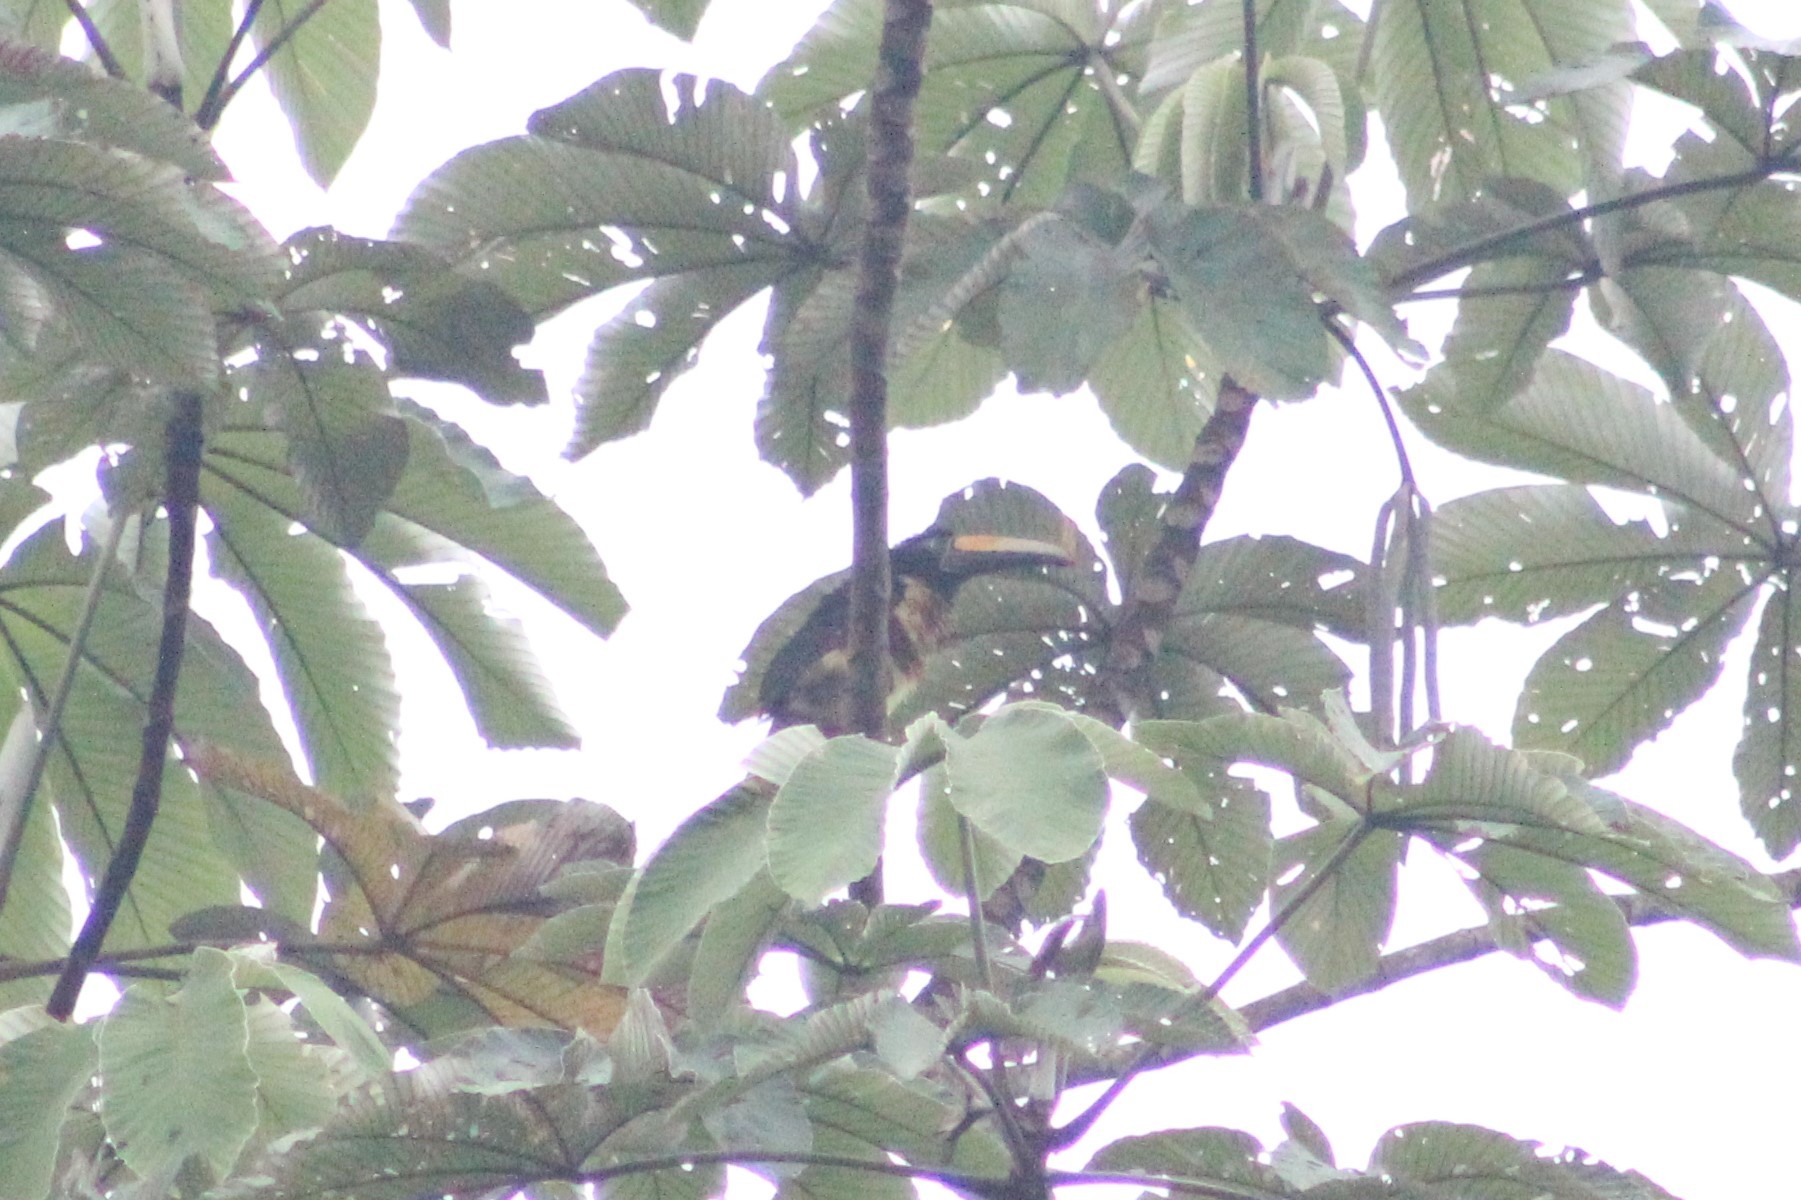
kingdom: Animalia
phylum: Chordata
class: Aves
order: Piciformes
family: Ramphastidae
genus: Pteroglossus
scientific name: Pteroglossus pluricinctus
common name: Many-banded aracari
